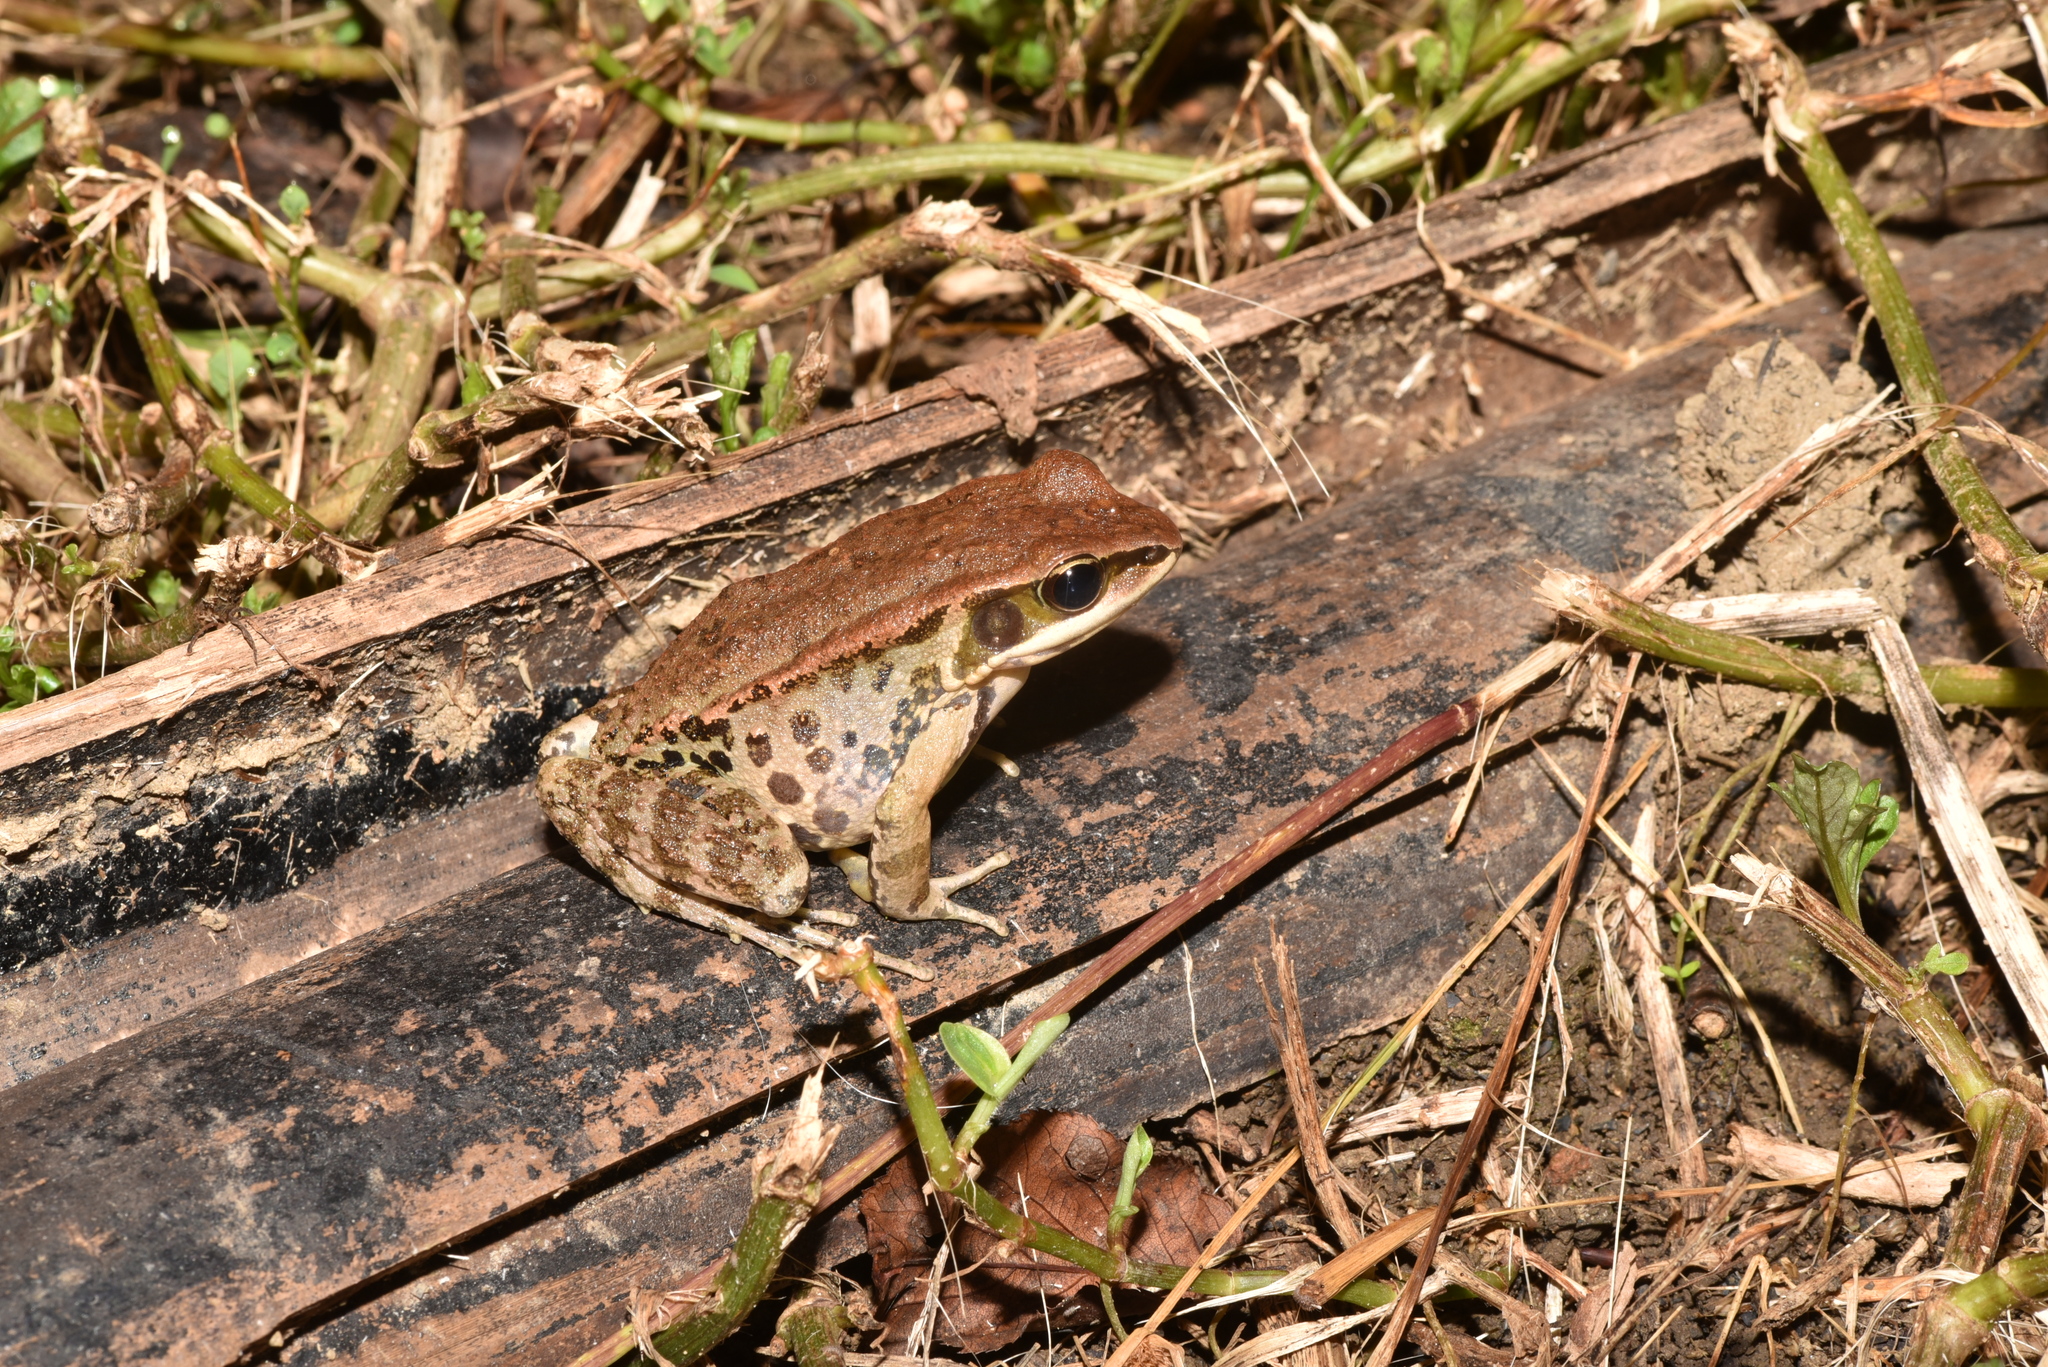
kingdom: Animalia
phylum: Chordata
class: Amphibia
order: Anura
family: Ranidae
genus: Hylarana
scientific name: Hylarana latouchii
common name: Broad-folded frog
